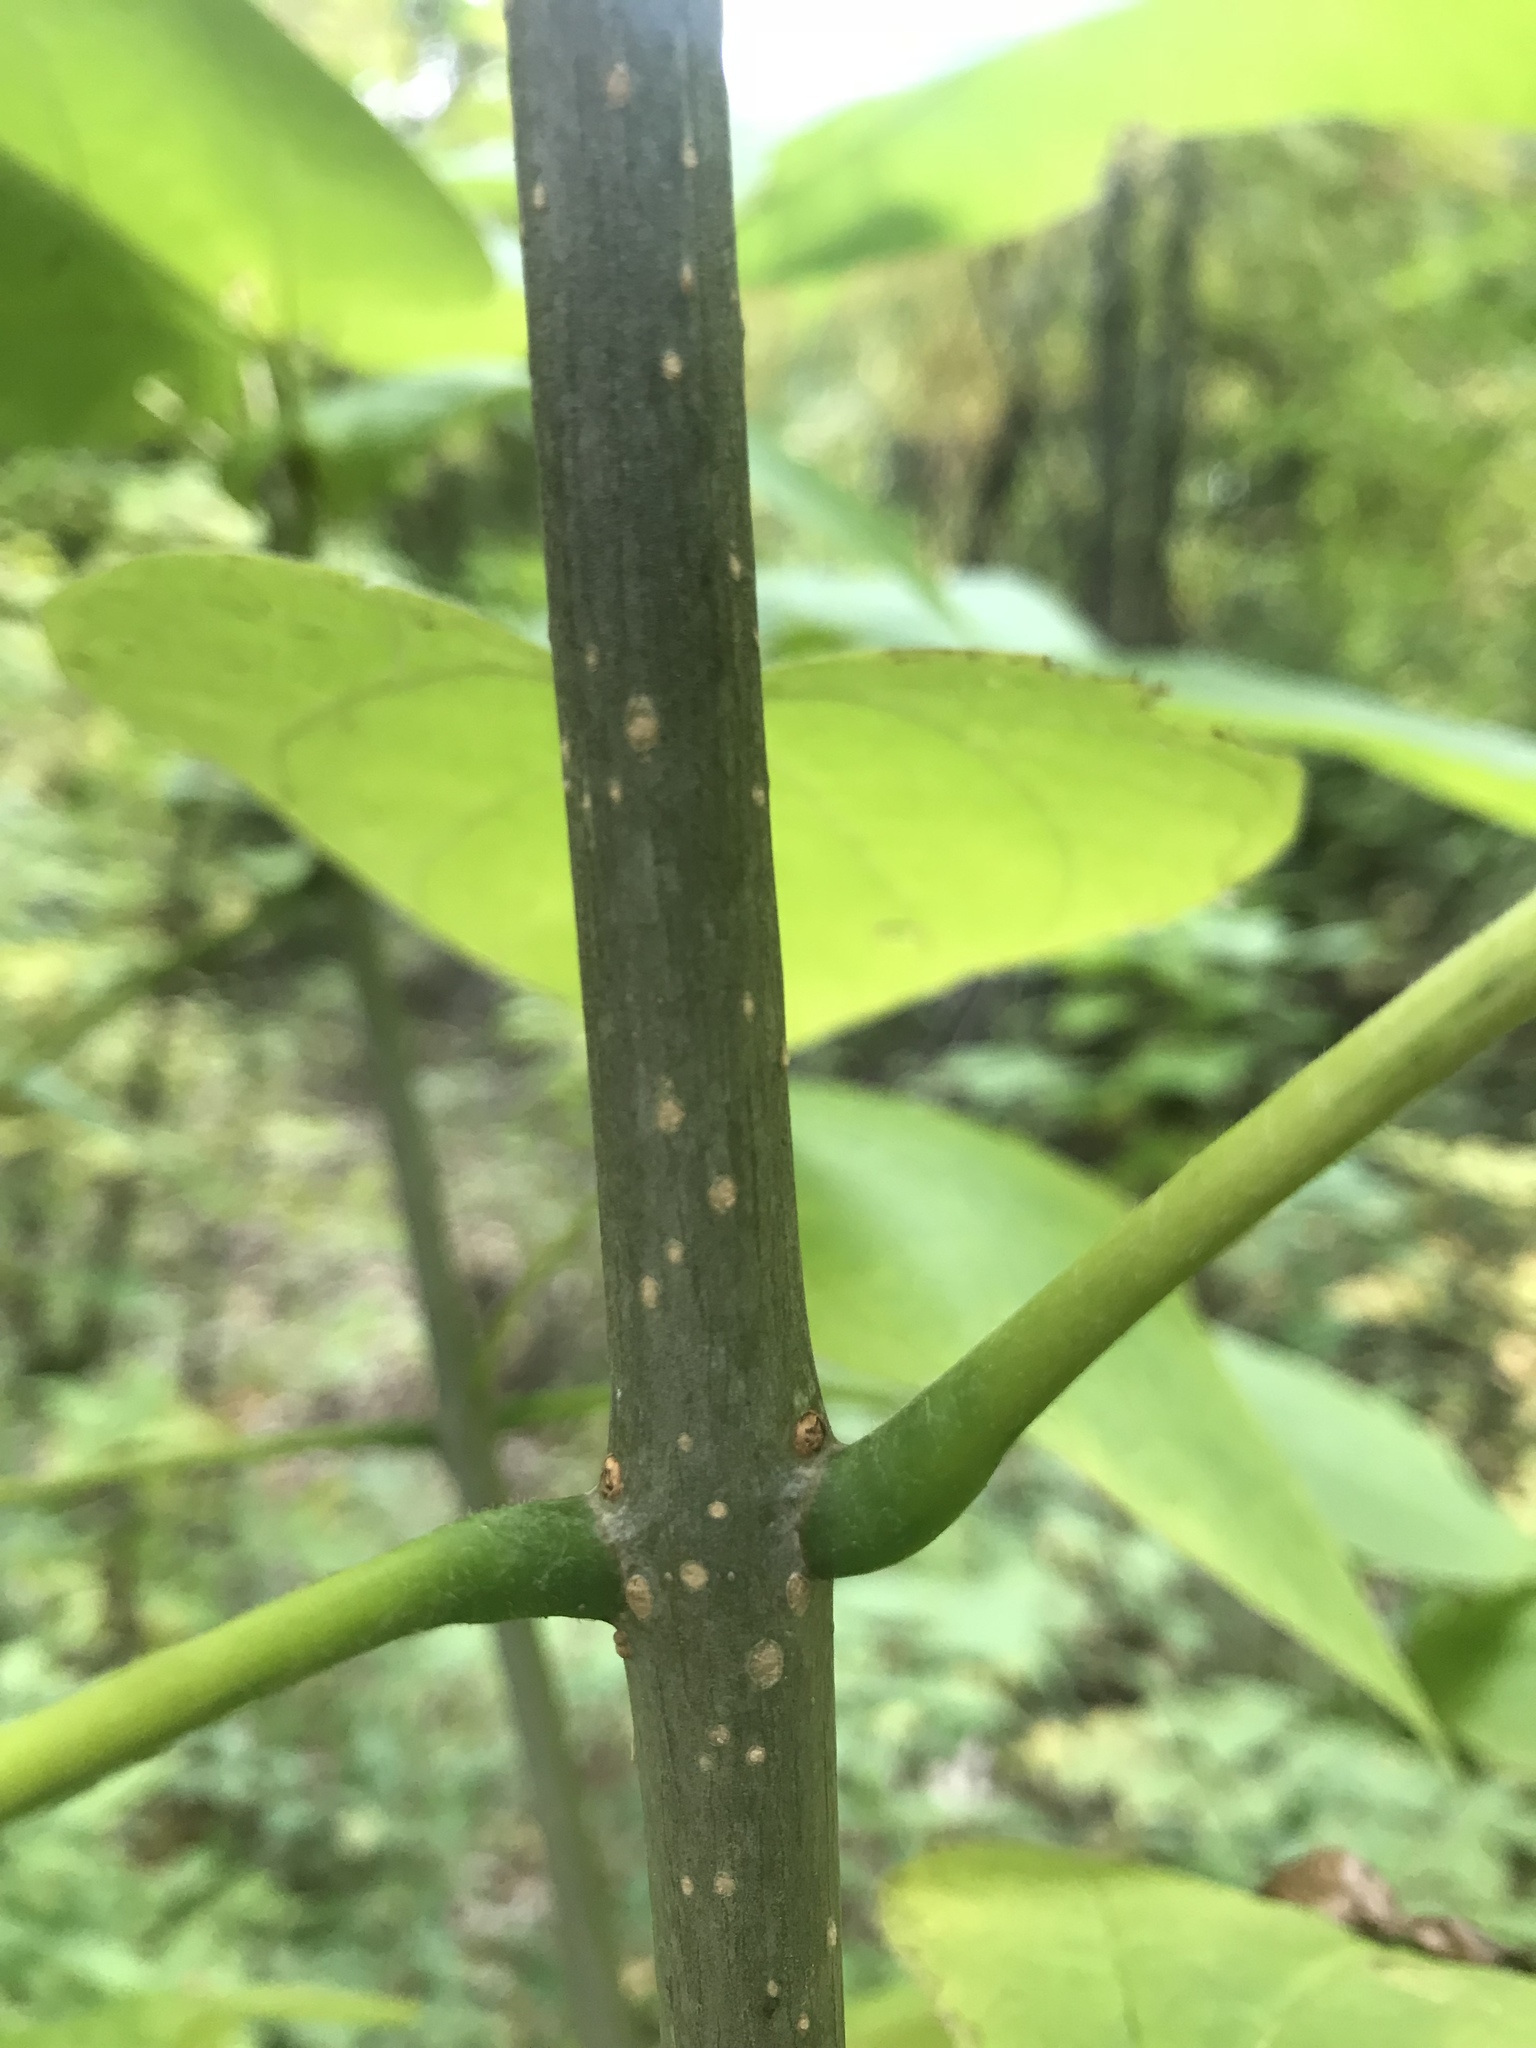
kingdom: Plantae
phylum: Tracheophyta
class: Magnoliopsida
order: Lamiales
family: Bignoniaceae
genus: Catalpa
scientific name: Catalpa speciosa
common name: Northern catalpa
